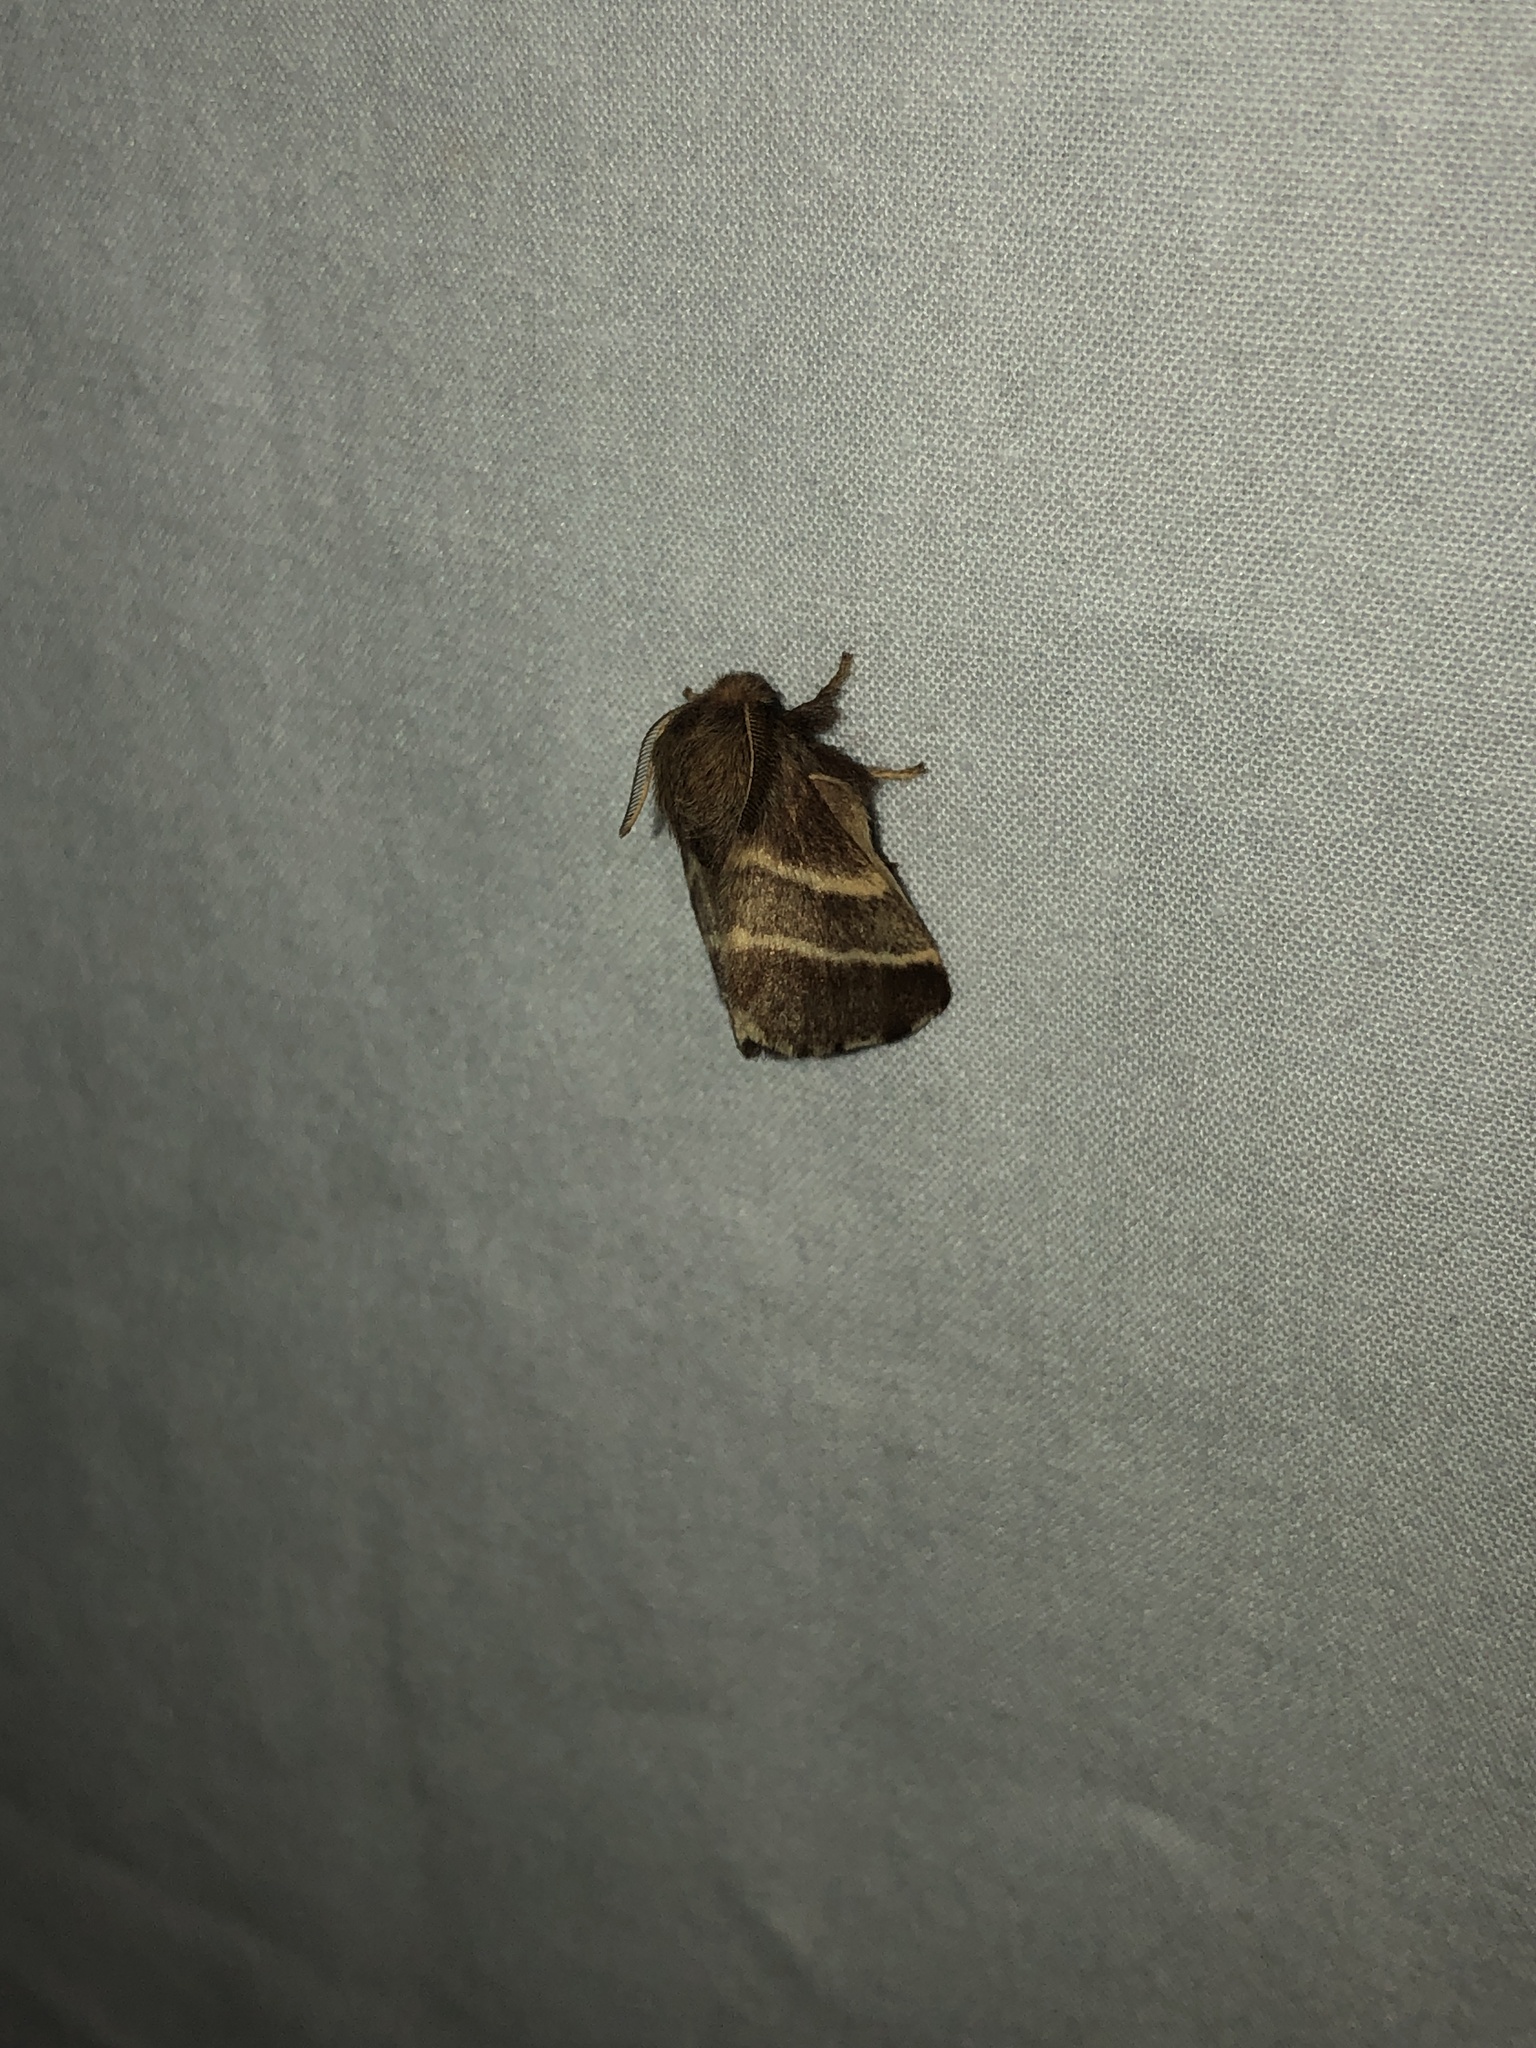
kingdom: Animalia
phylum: Arthropoda
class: Insecta
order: Lepidoptera
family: Lasiocampidae
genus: Malacosoma
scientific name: Malacosoma americana
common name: Eastern tent caterpillar moth
